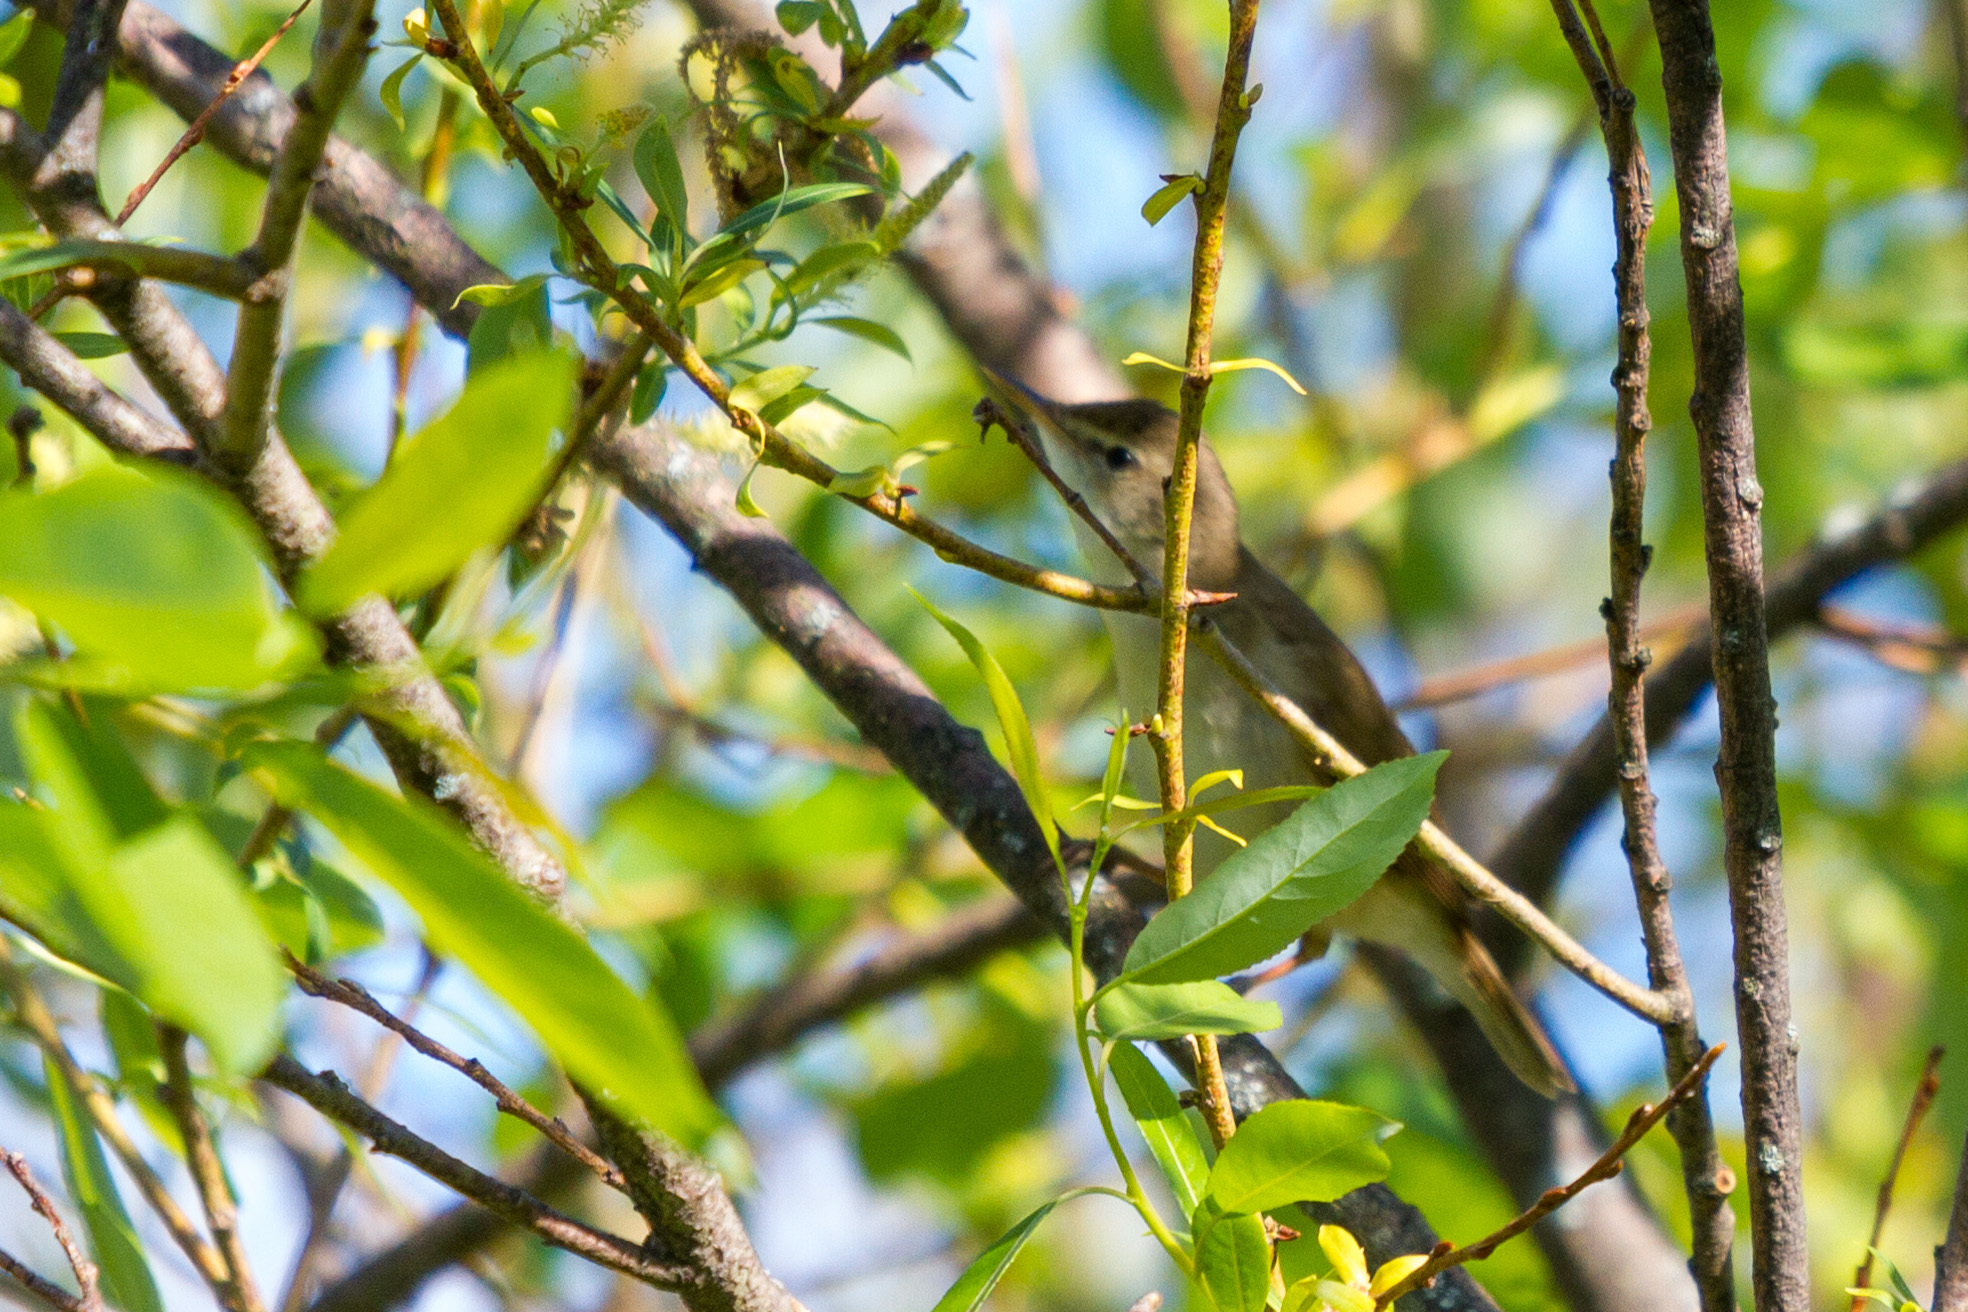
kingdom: Animalia
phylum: Chordata
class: Aves
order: Passeriformes
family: Acrocephalidae
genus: Acrocephalus
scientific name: Acrocephalus dumetorum
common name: Blyth's reed warbler
